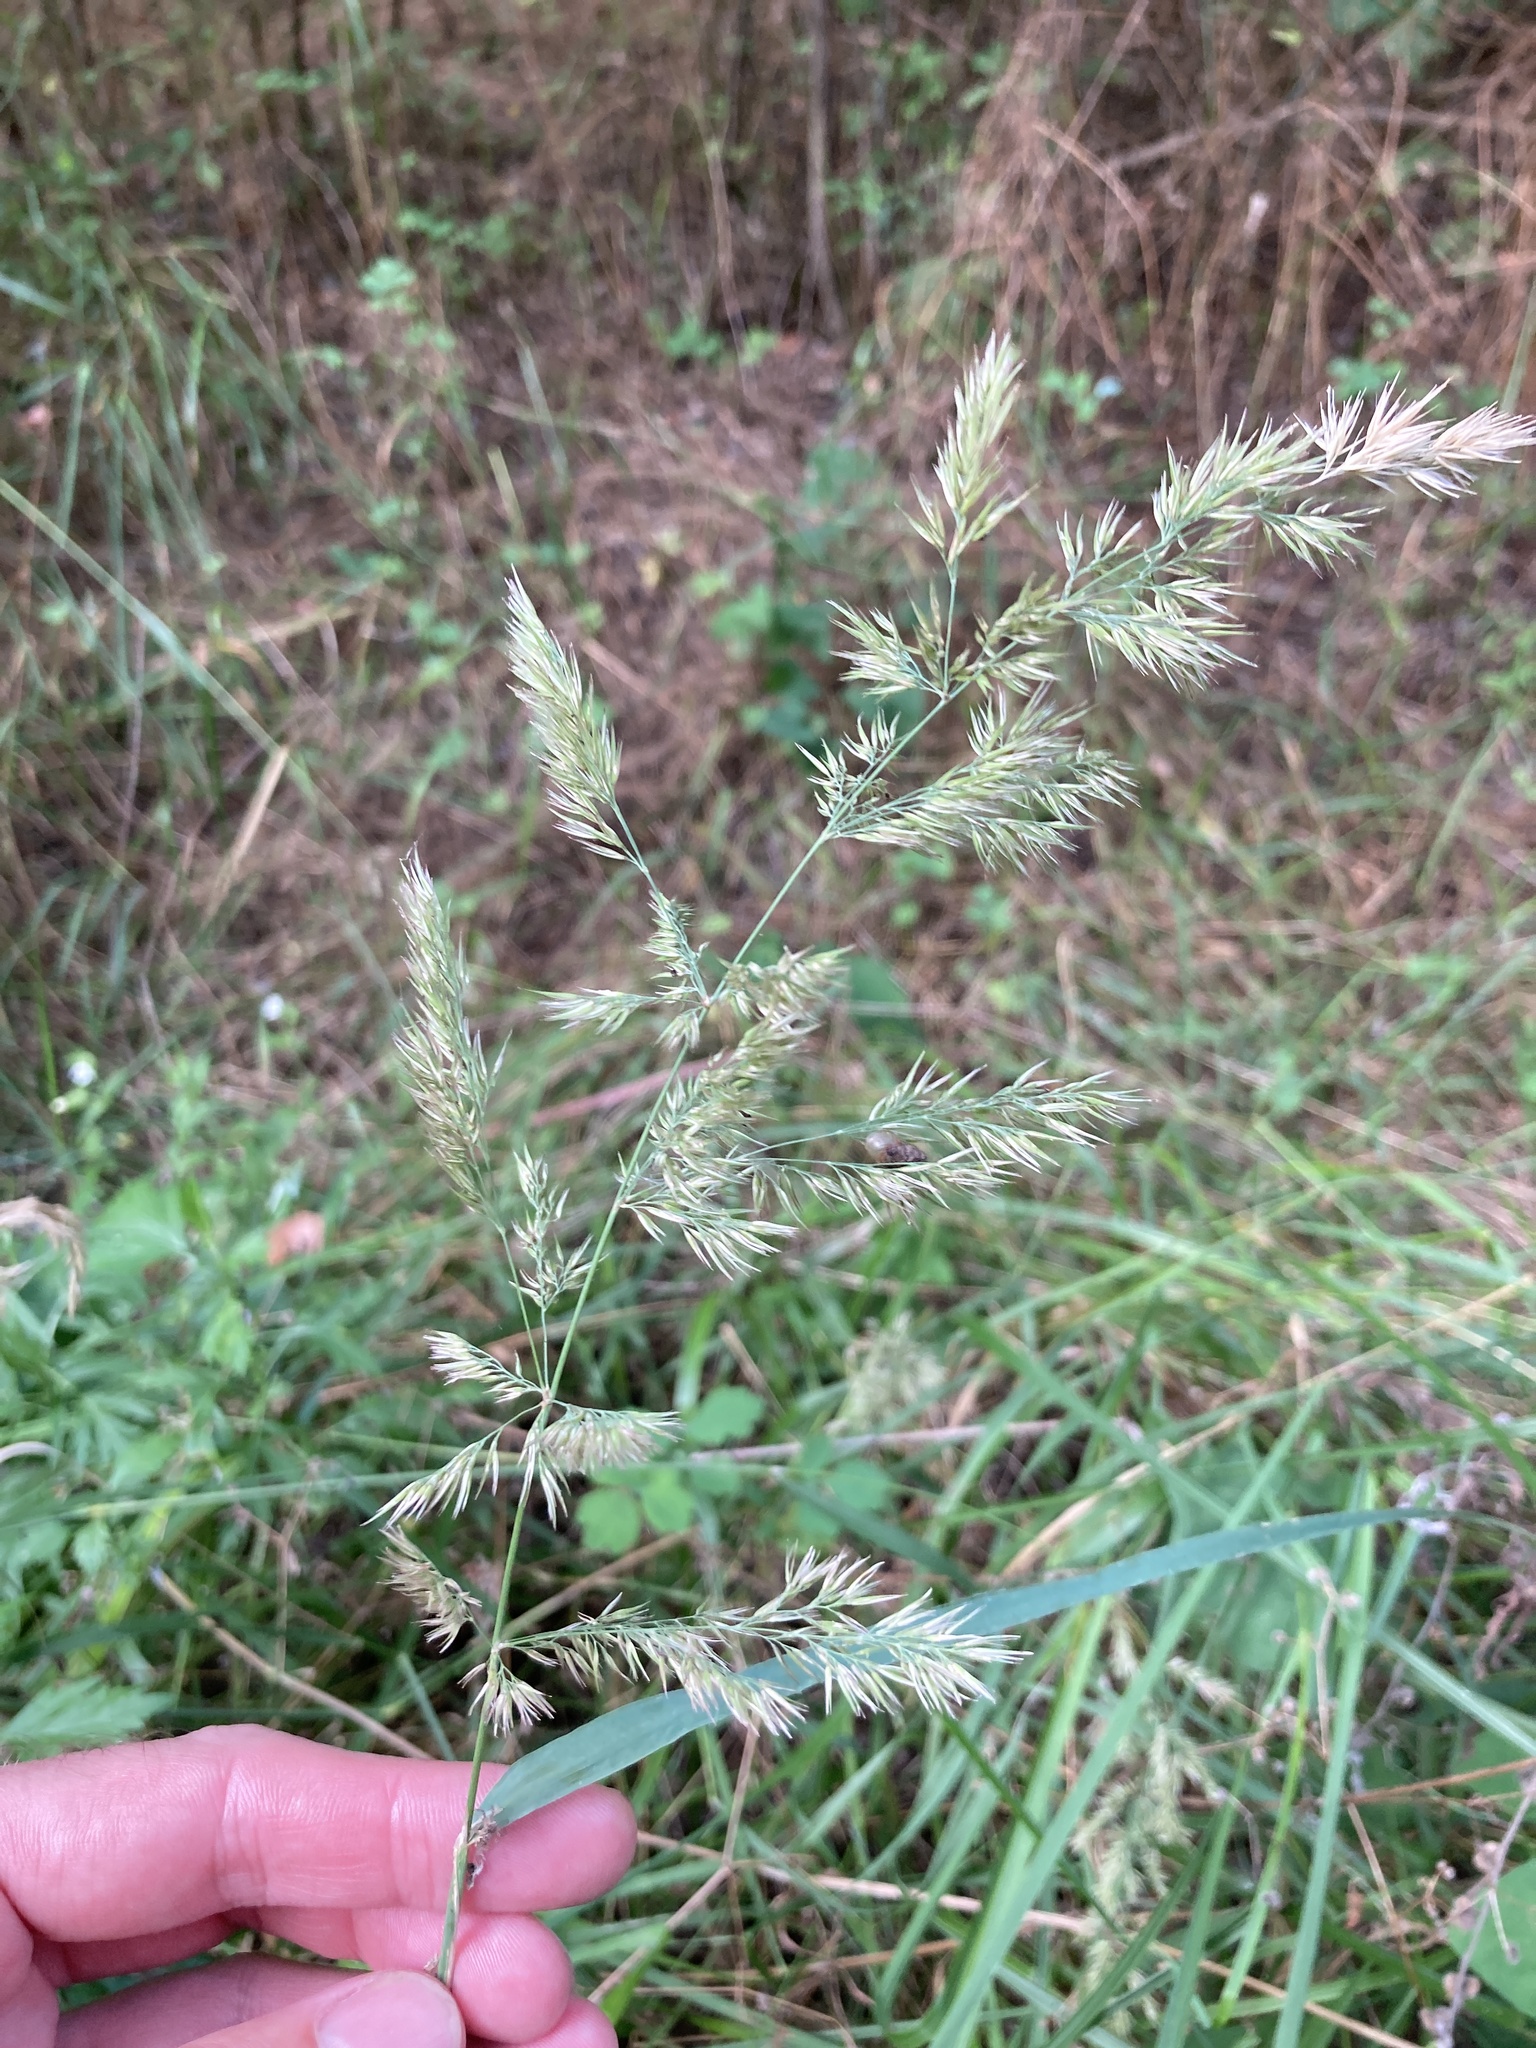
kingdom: Plantae
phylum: Tracheophyta
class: Liliopsida
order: Poales
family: Poaceae
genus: Calamagrostis
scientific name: Calamagrostis epigejos
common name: Wood small-reed
